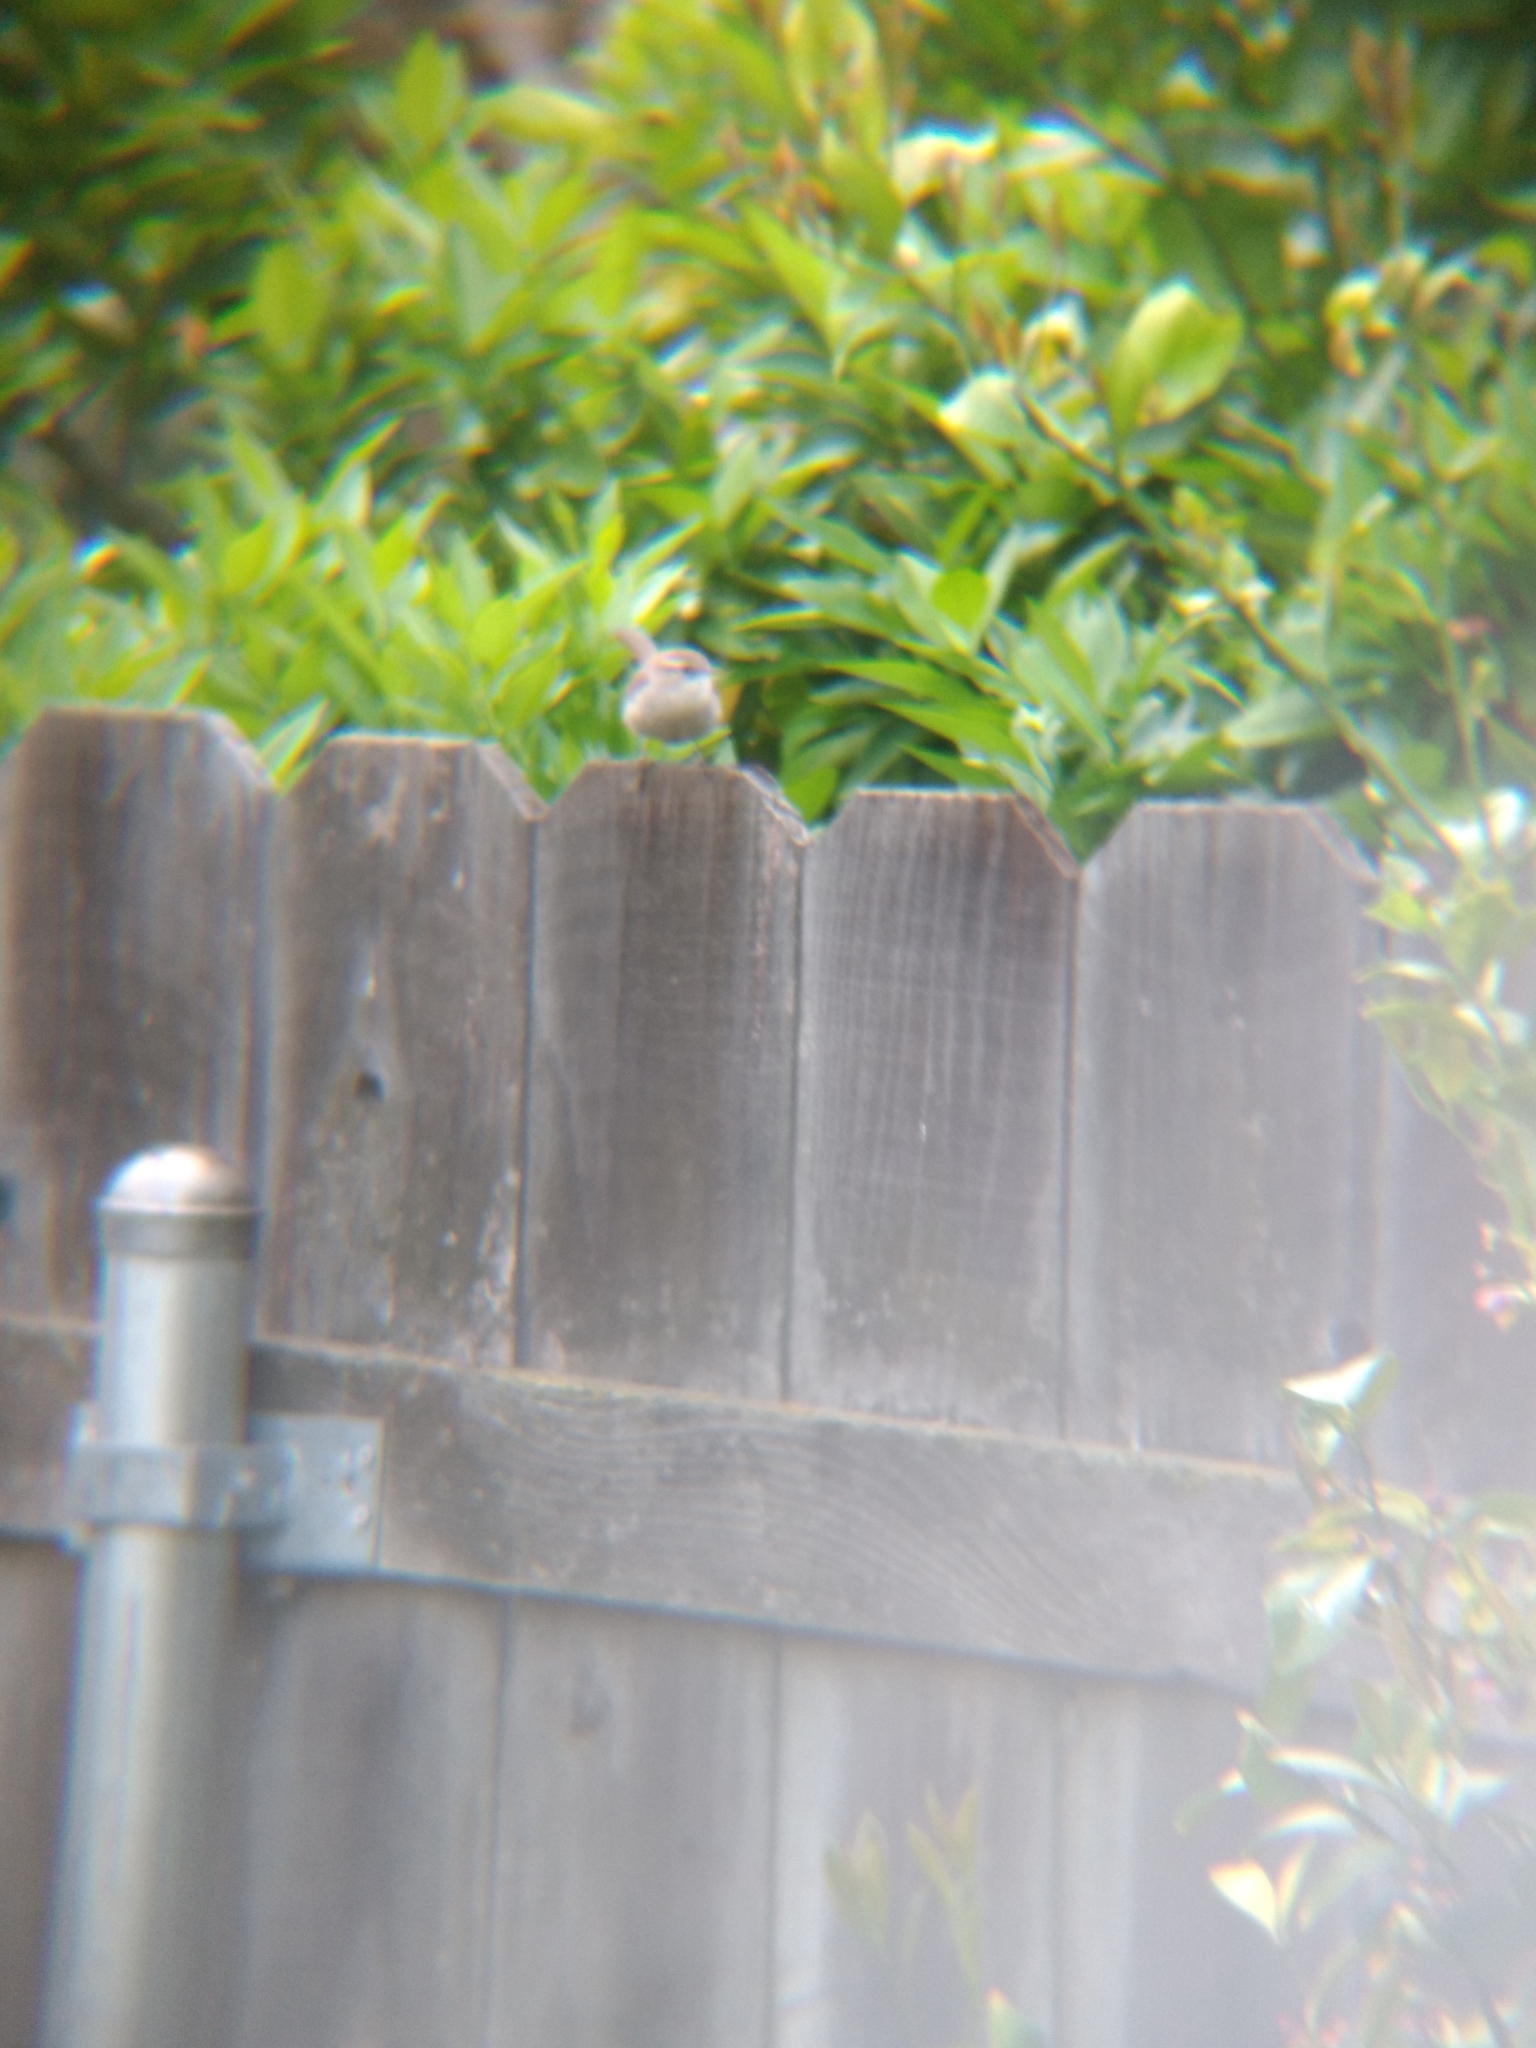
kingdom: Animalia
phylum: Chordata
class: Aves
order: Passeriformes
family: Troglodytidae
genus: Thryomanes
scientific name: Thryomanes bewickii
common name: Bewick's wren
